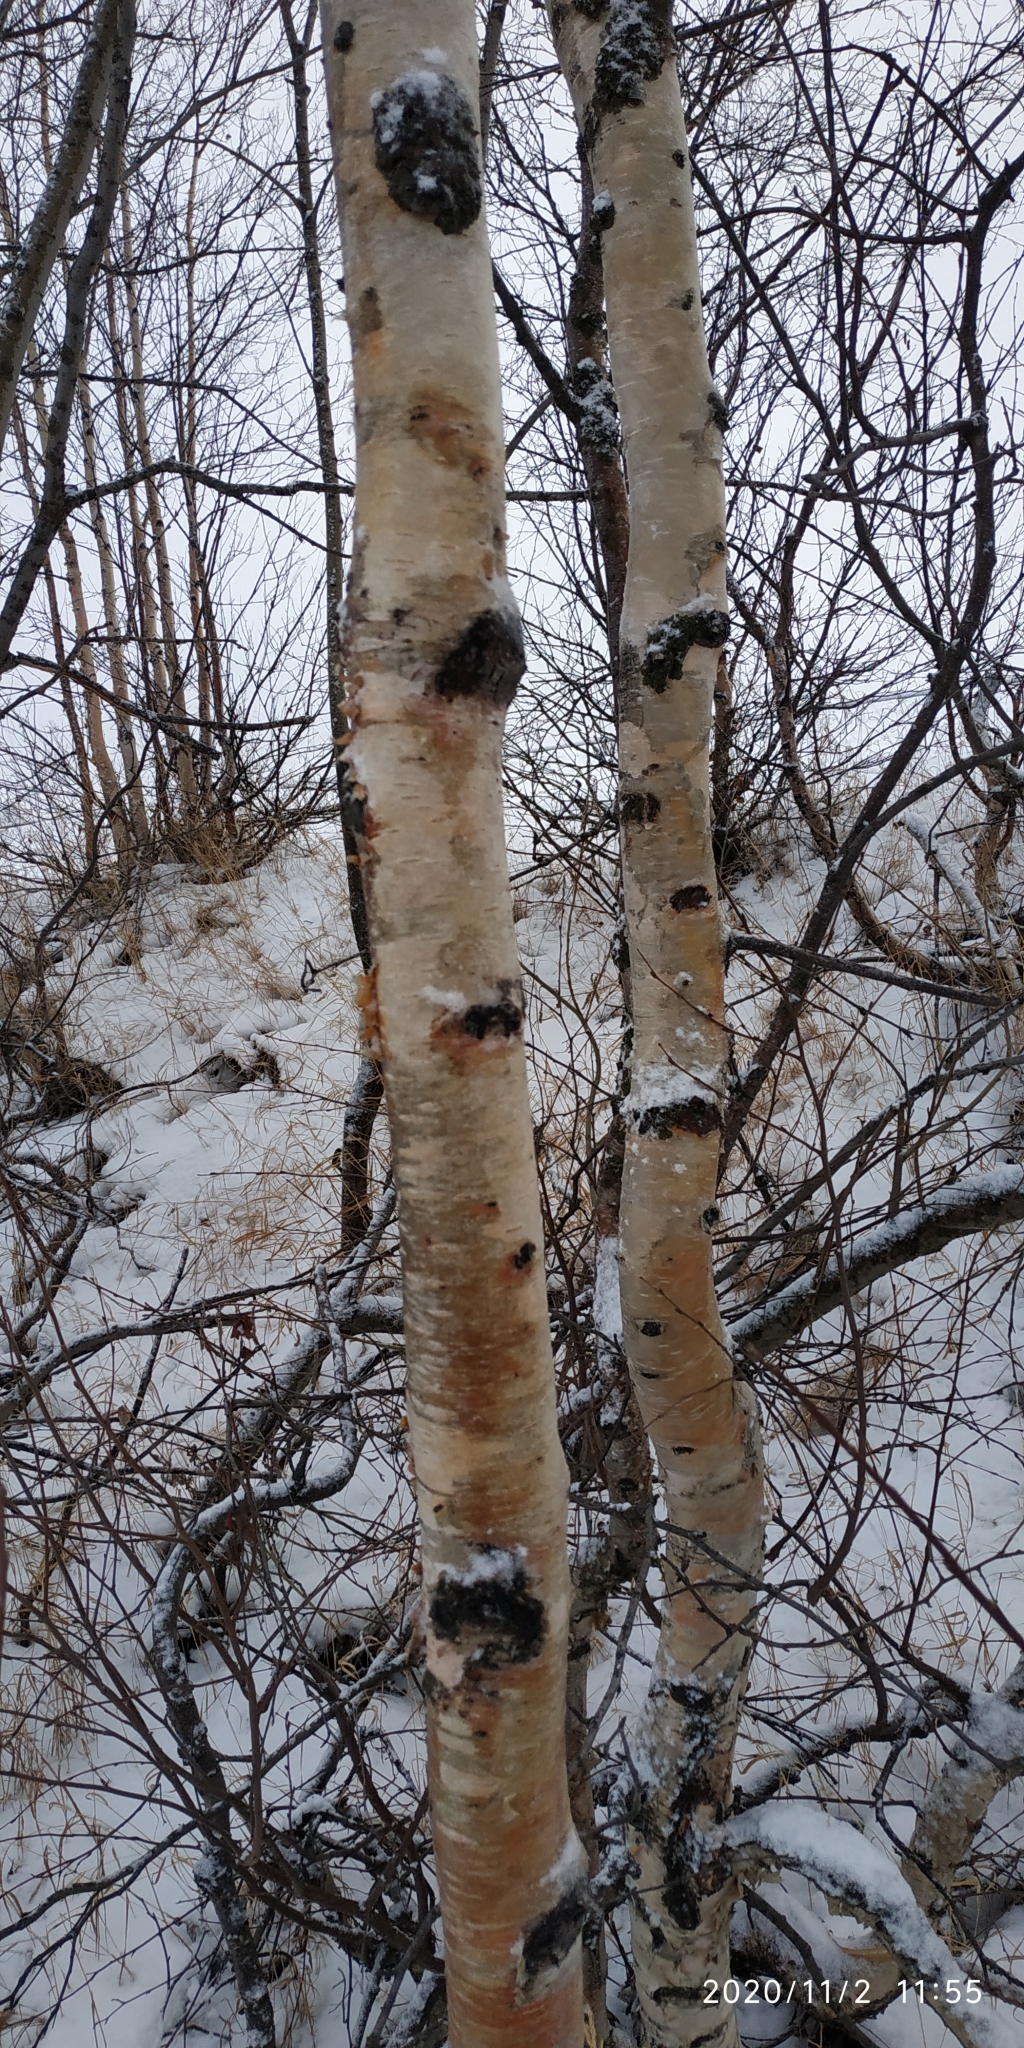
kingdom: Plantae
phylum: Tracheophyta
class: Magnoliopsida
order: Fagales
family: Betulaceae
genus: Betula
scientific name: Betula pubescens
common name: Downy birch
